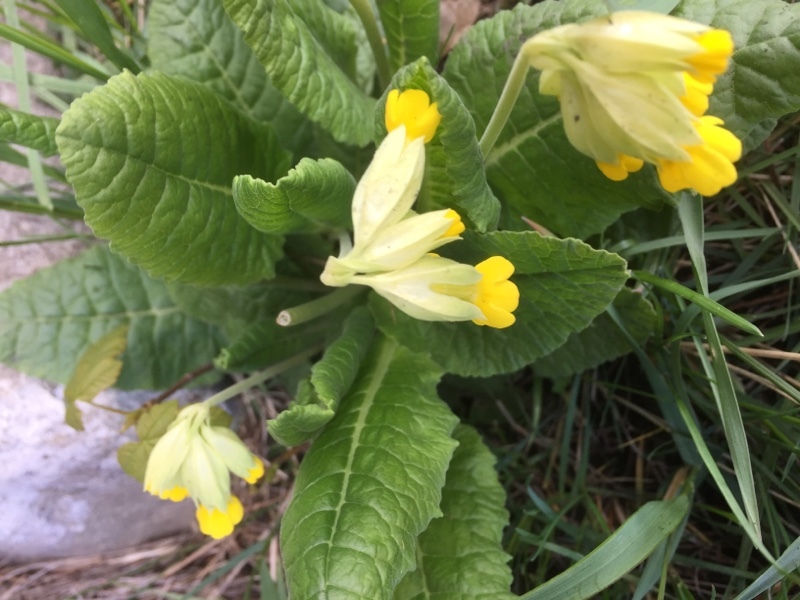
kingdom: Plantae
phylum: Tracheophyta
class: Magnoliopsida
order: Ericales
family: Primulaceae
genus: Primula
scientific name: Primula veris
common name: Cowslip
